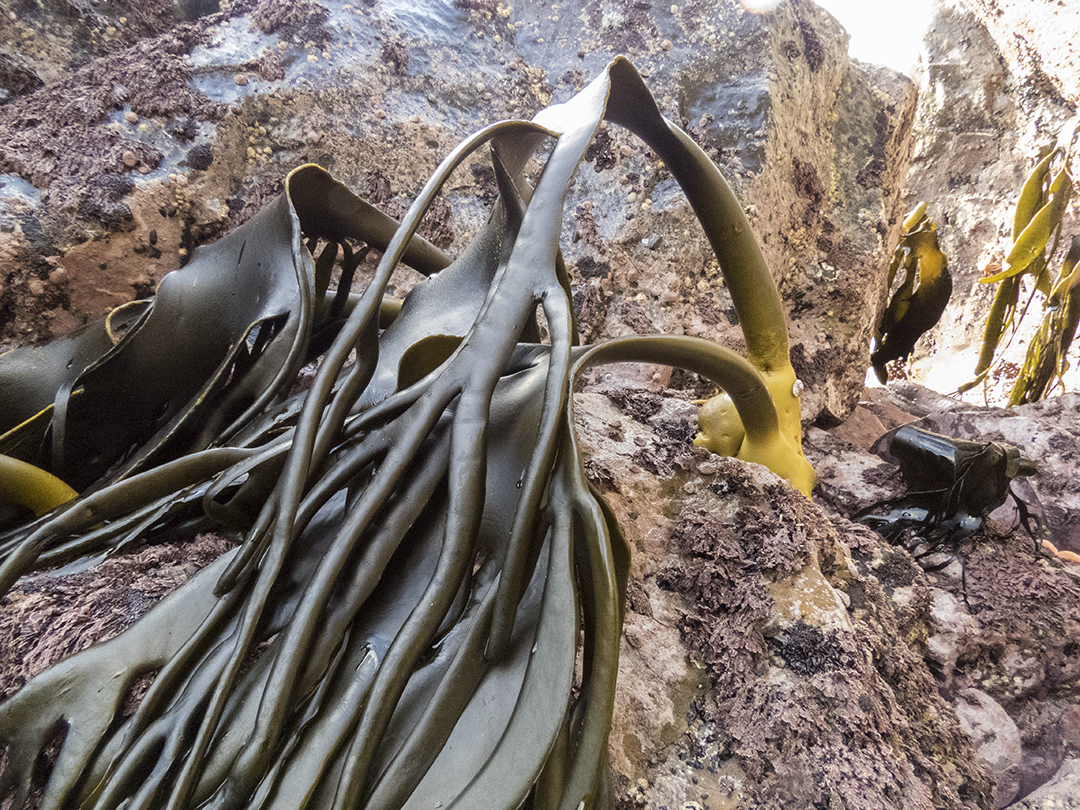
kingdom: Chromista
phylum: Ochrophyta
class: Phaeophyceae
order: Fucales
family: Durvillaeaceae
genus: Durvillaea
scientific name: Durvillaea antarctica
